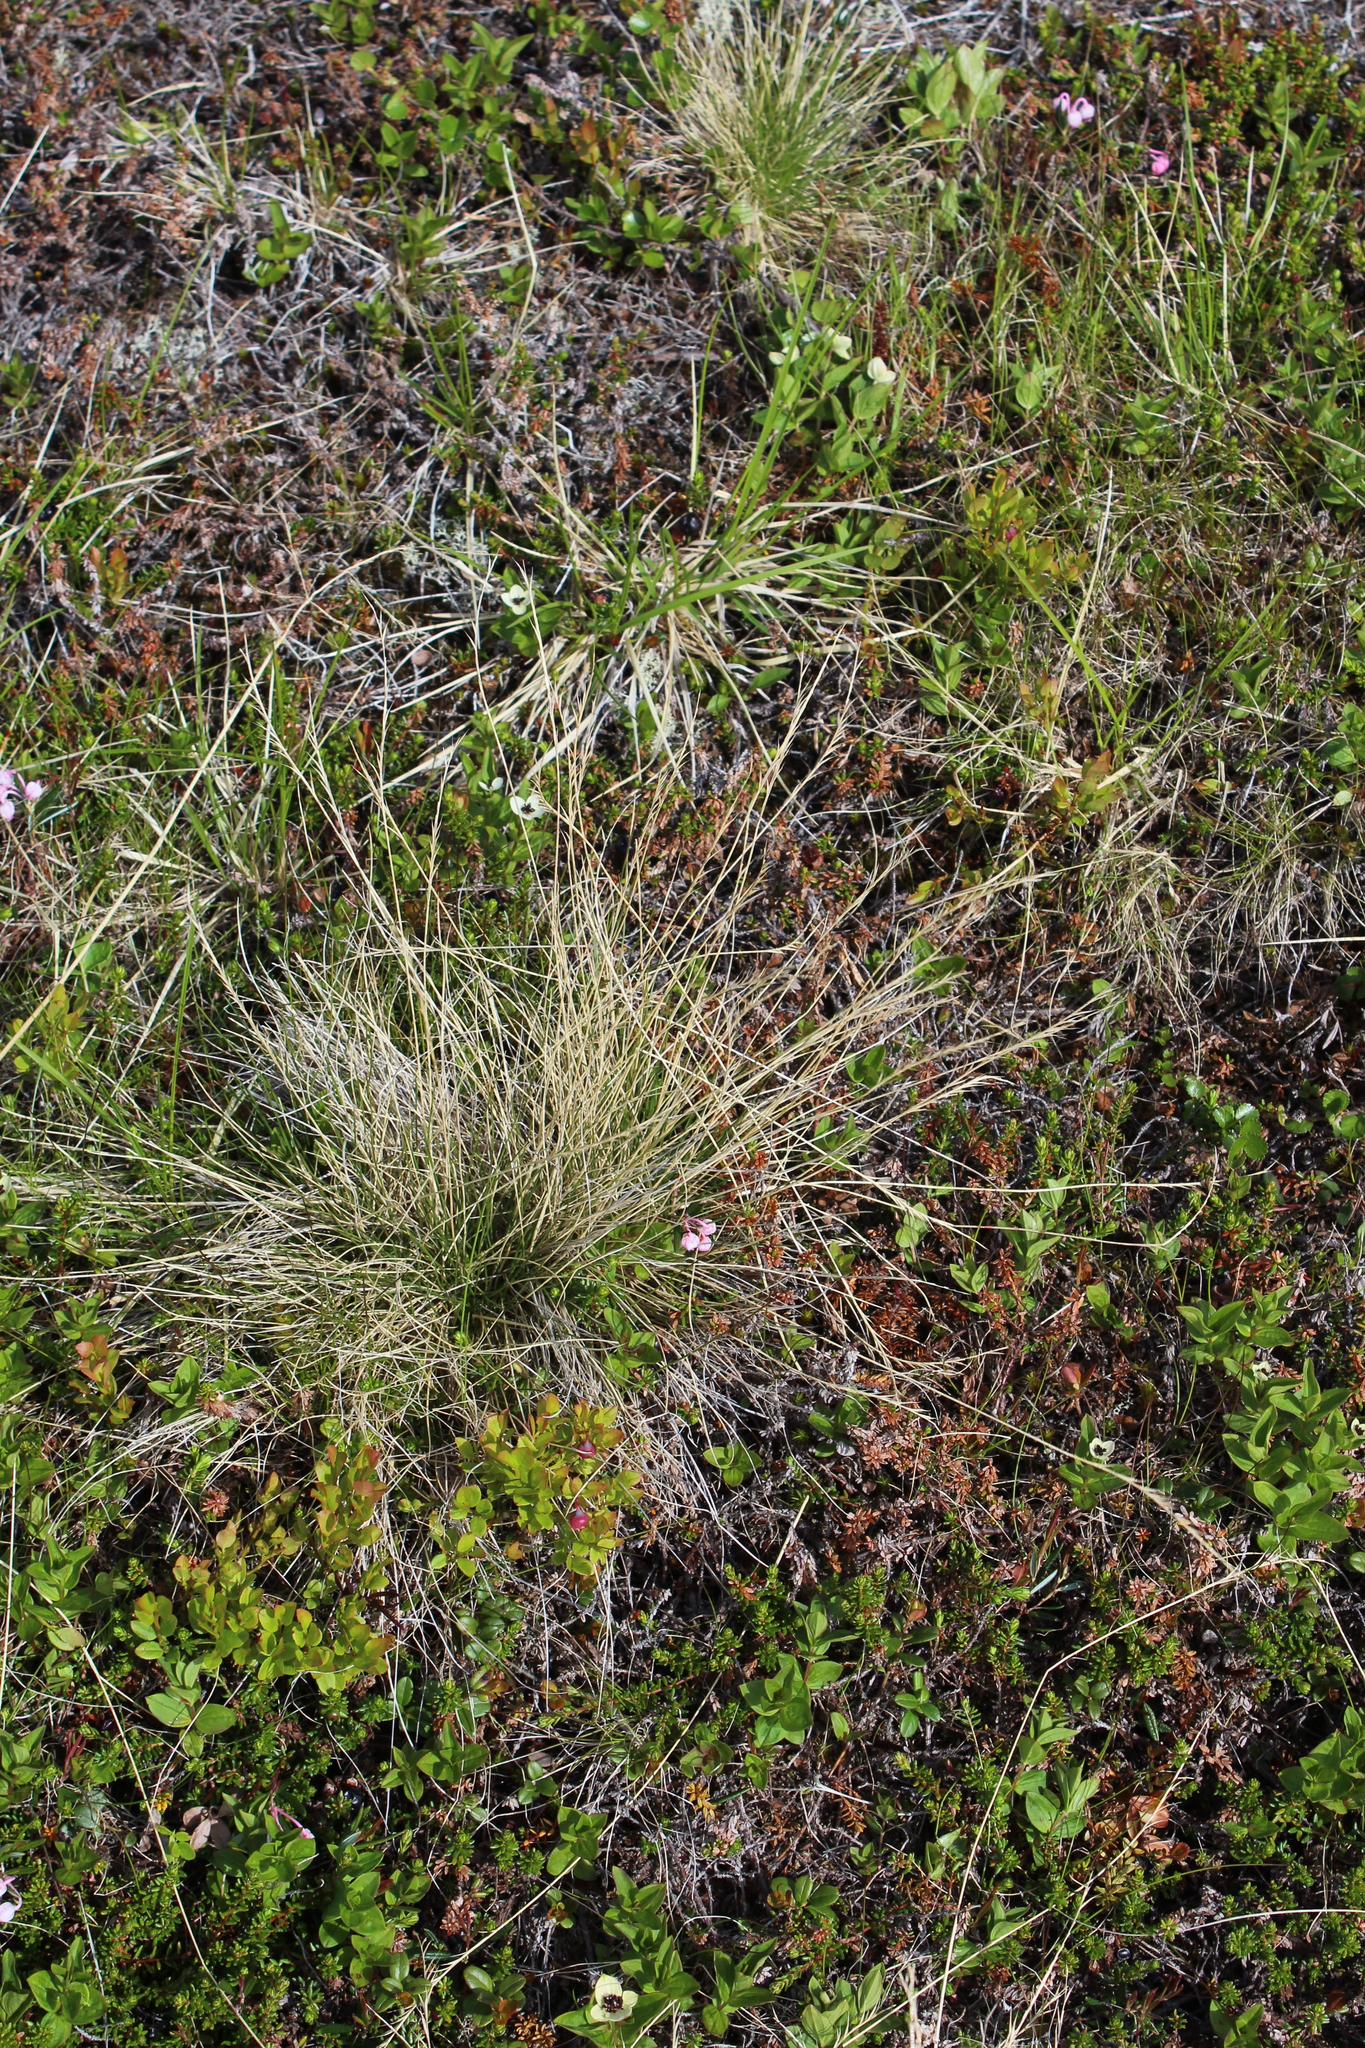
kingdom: Plantae
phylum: Tracheophyta
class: Liliopsida
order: Poales
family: Poaceae
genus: Nardus
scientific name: Nardus stricta
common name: Mat-grass
